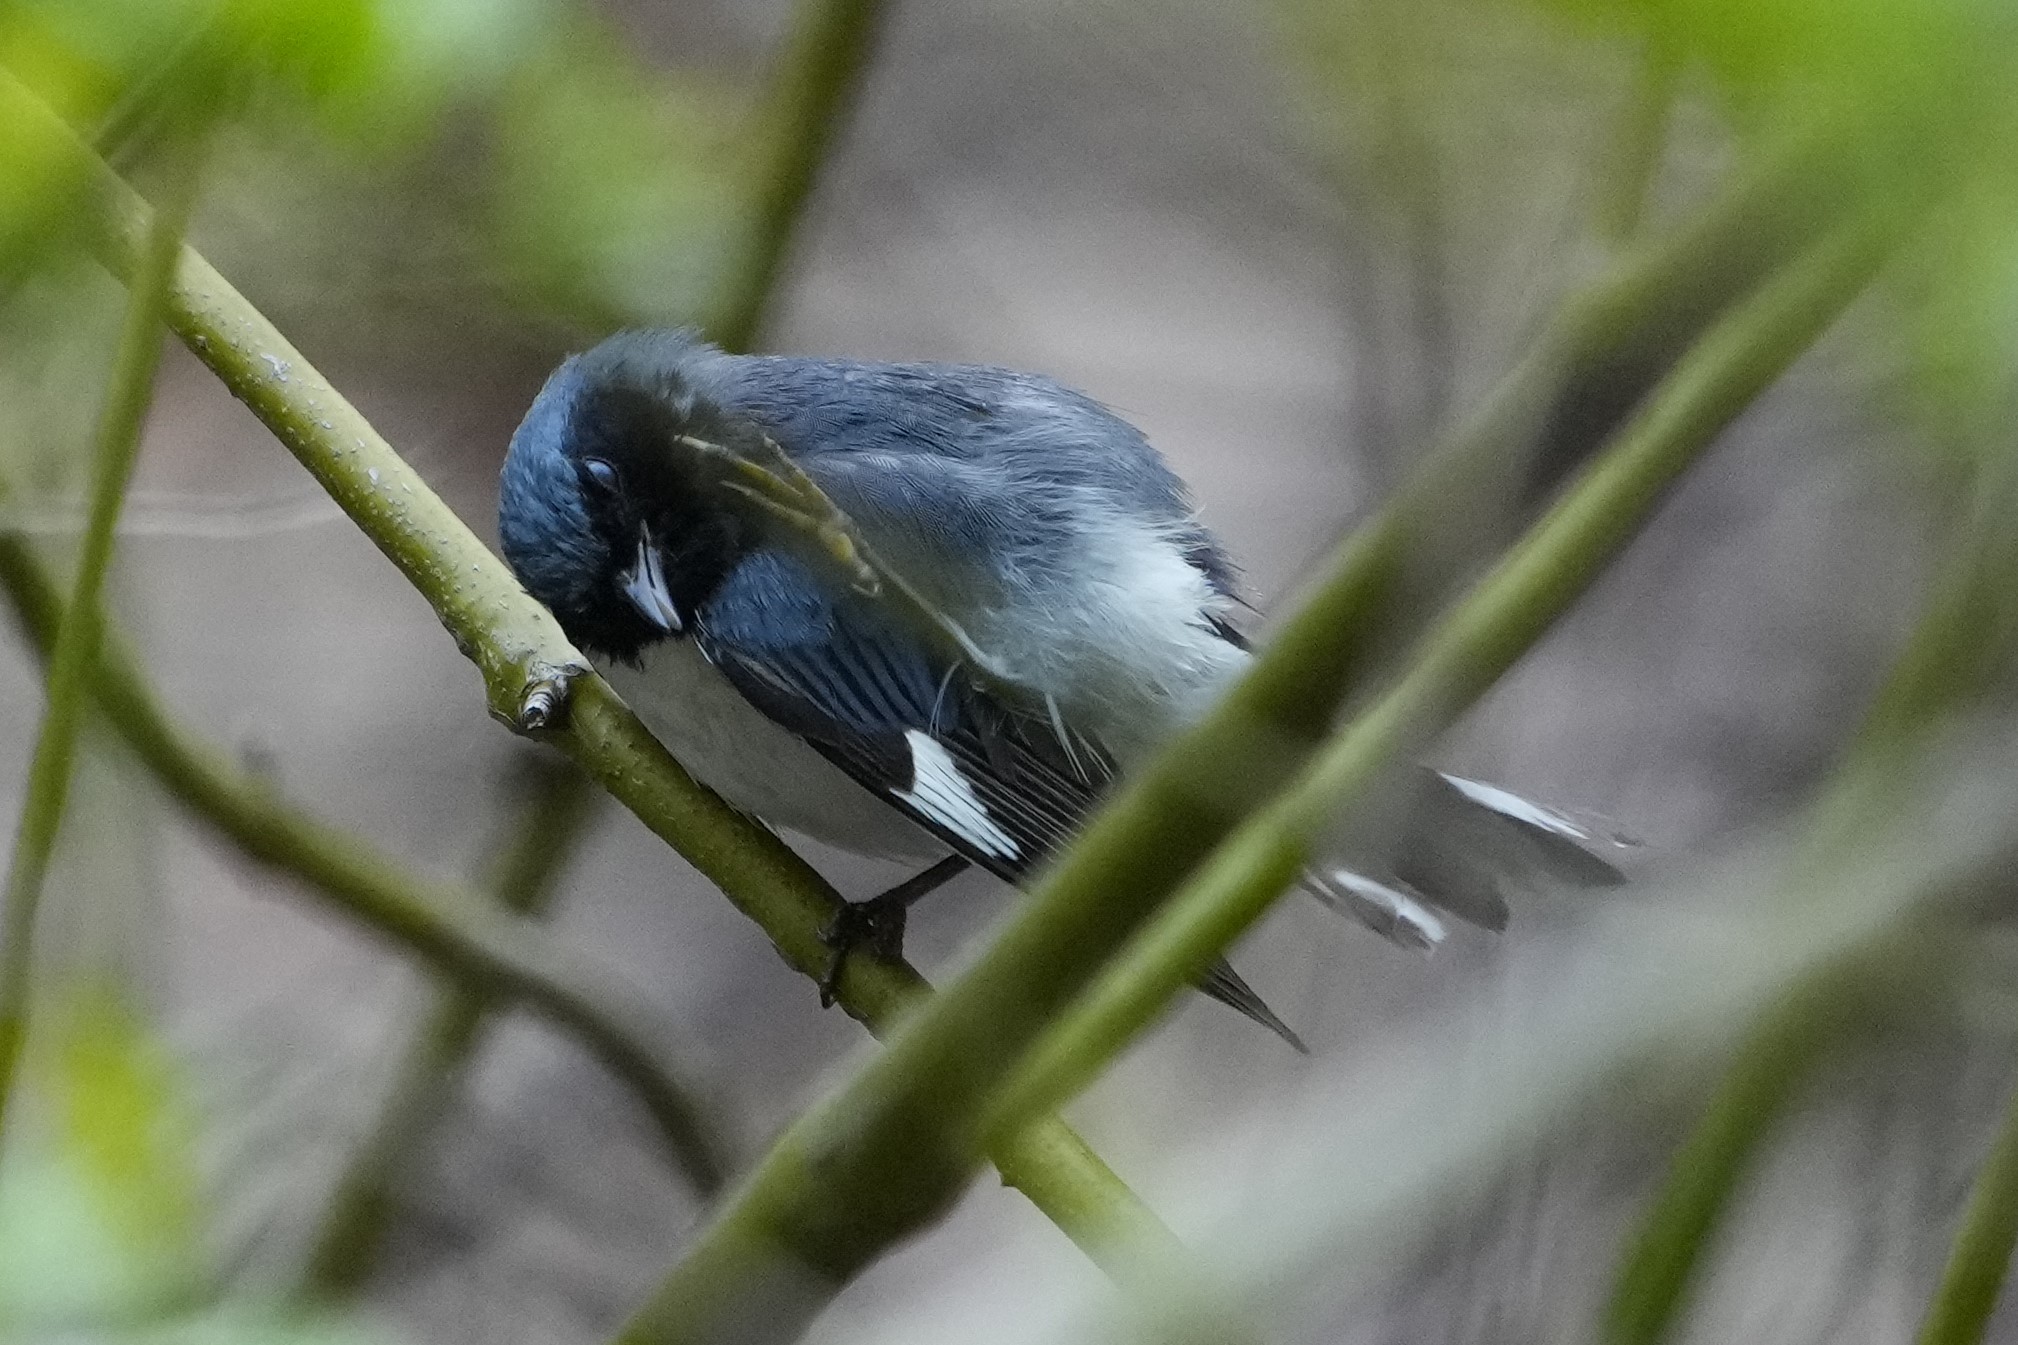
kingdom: Animalia
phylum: Chordata
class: Aves
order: Passeriformes
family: Parulidae
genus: Setophaga
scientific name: Setophaga caerulescens
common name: Black-throated blue warbler
